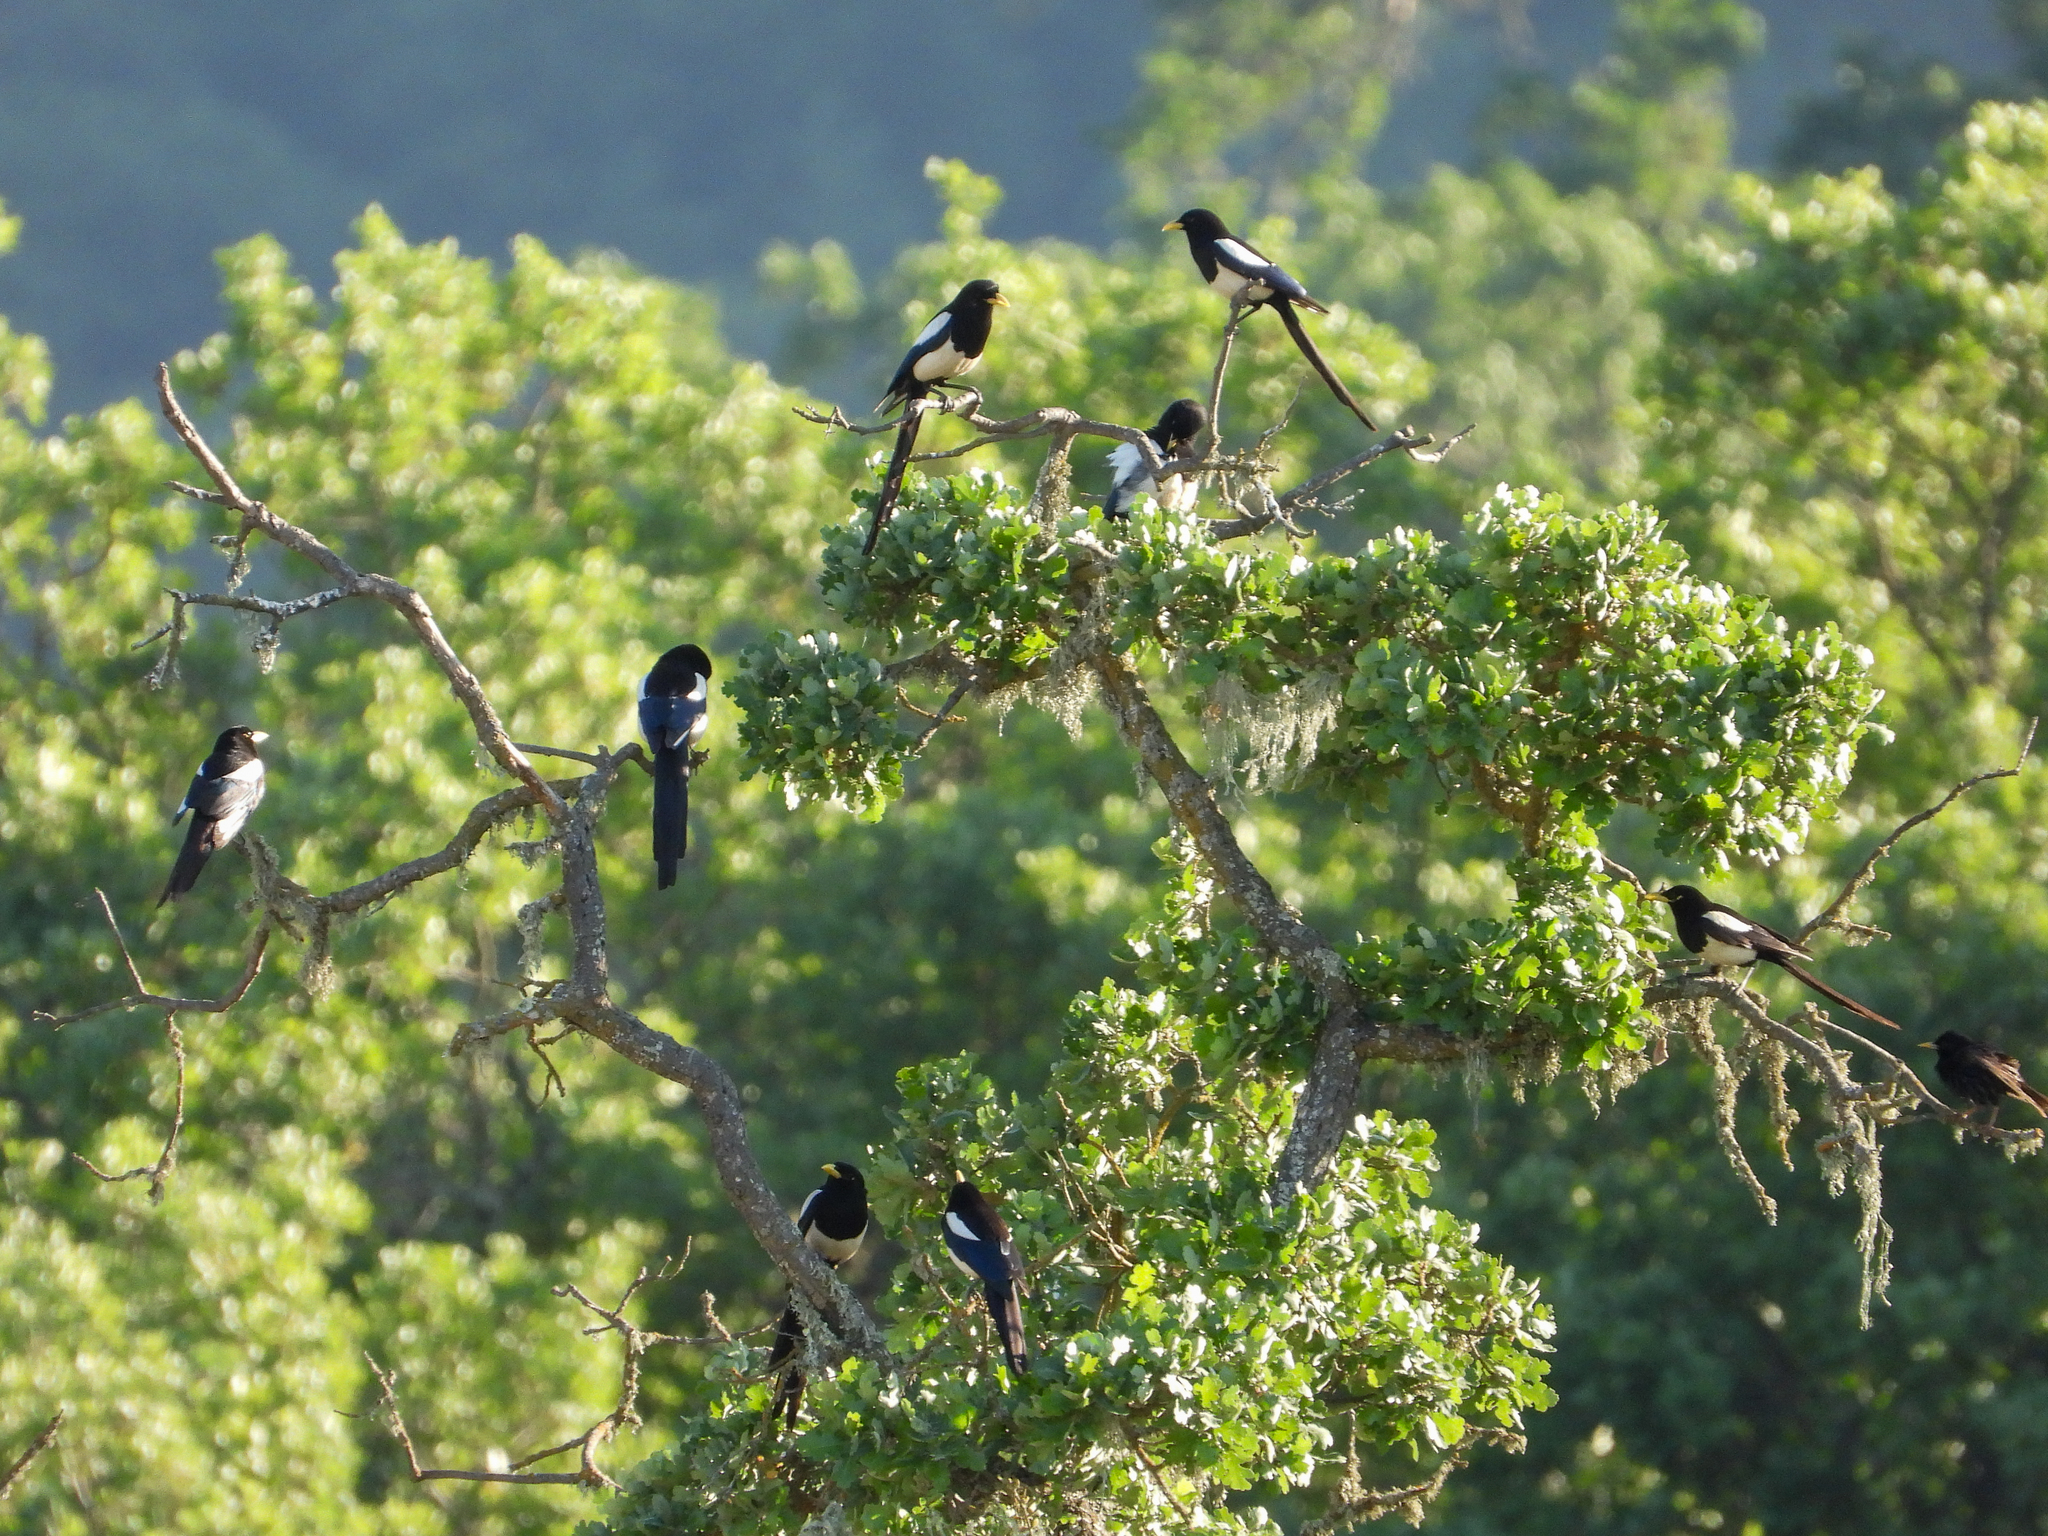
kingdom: Animalia
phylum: Chordata
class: Aves
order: Passeriformes
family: Corvidae
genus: Pica
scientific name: Pica nuttalli
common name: Yellow-billed magpie
